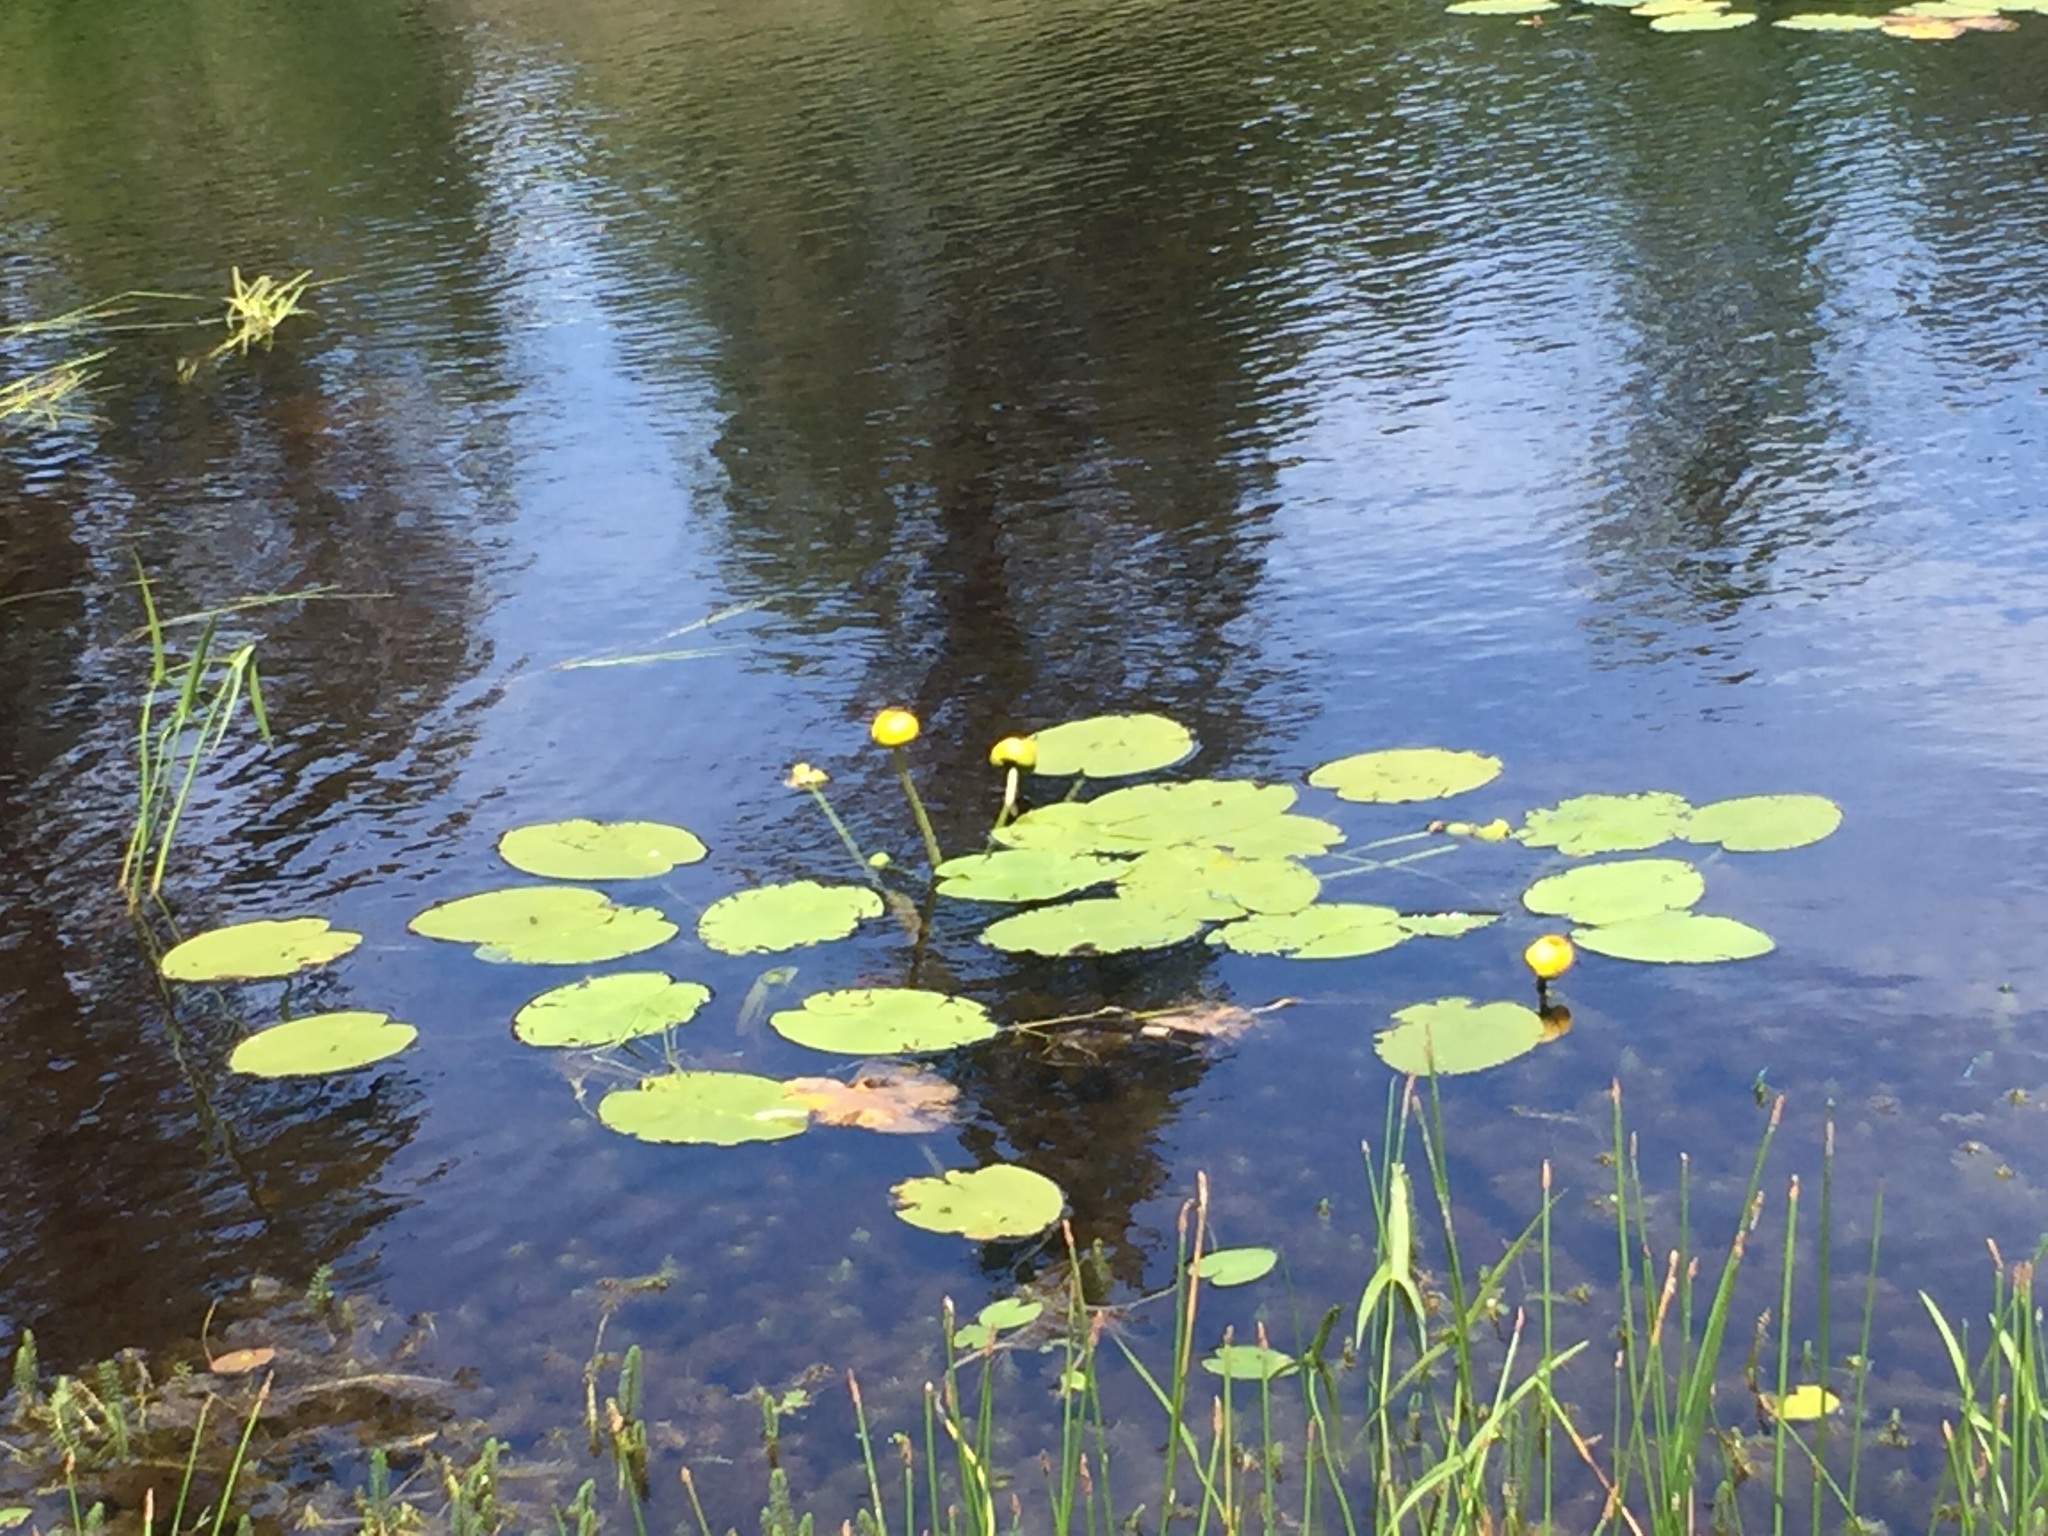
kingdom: Plantae
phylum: Tracheophyta
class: Magnoliopsida
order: Nymphaeales
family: Nymphaeaceae
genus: Nuphar
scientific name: Nuphar variegata
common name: Beaver-root
